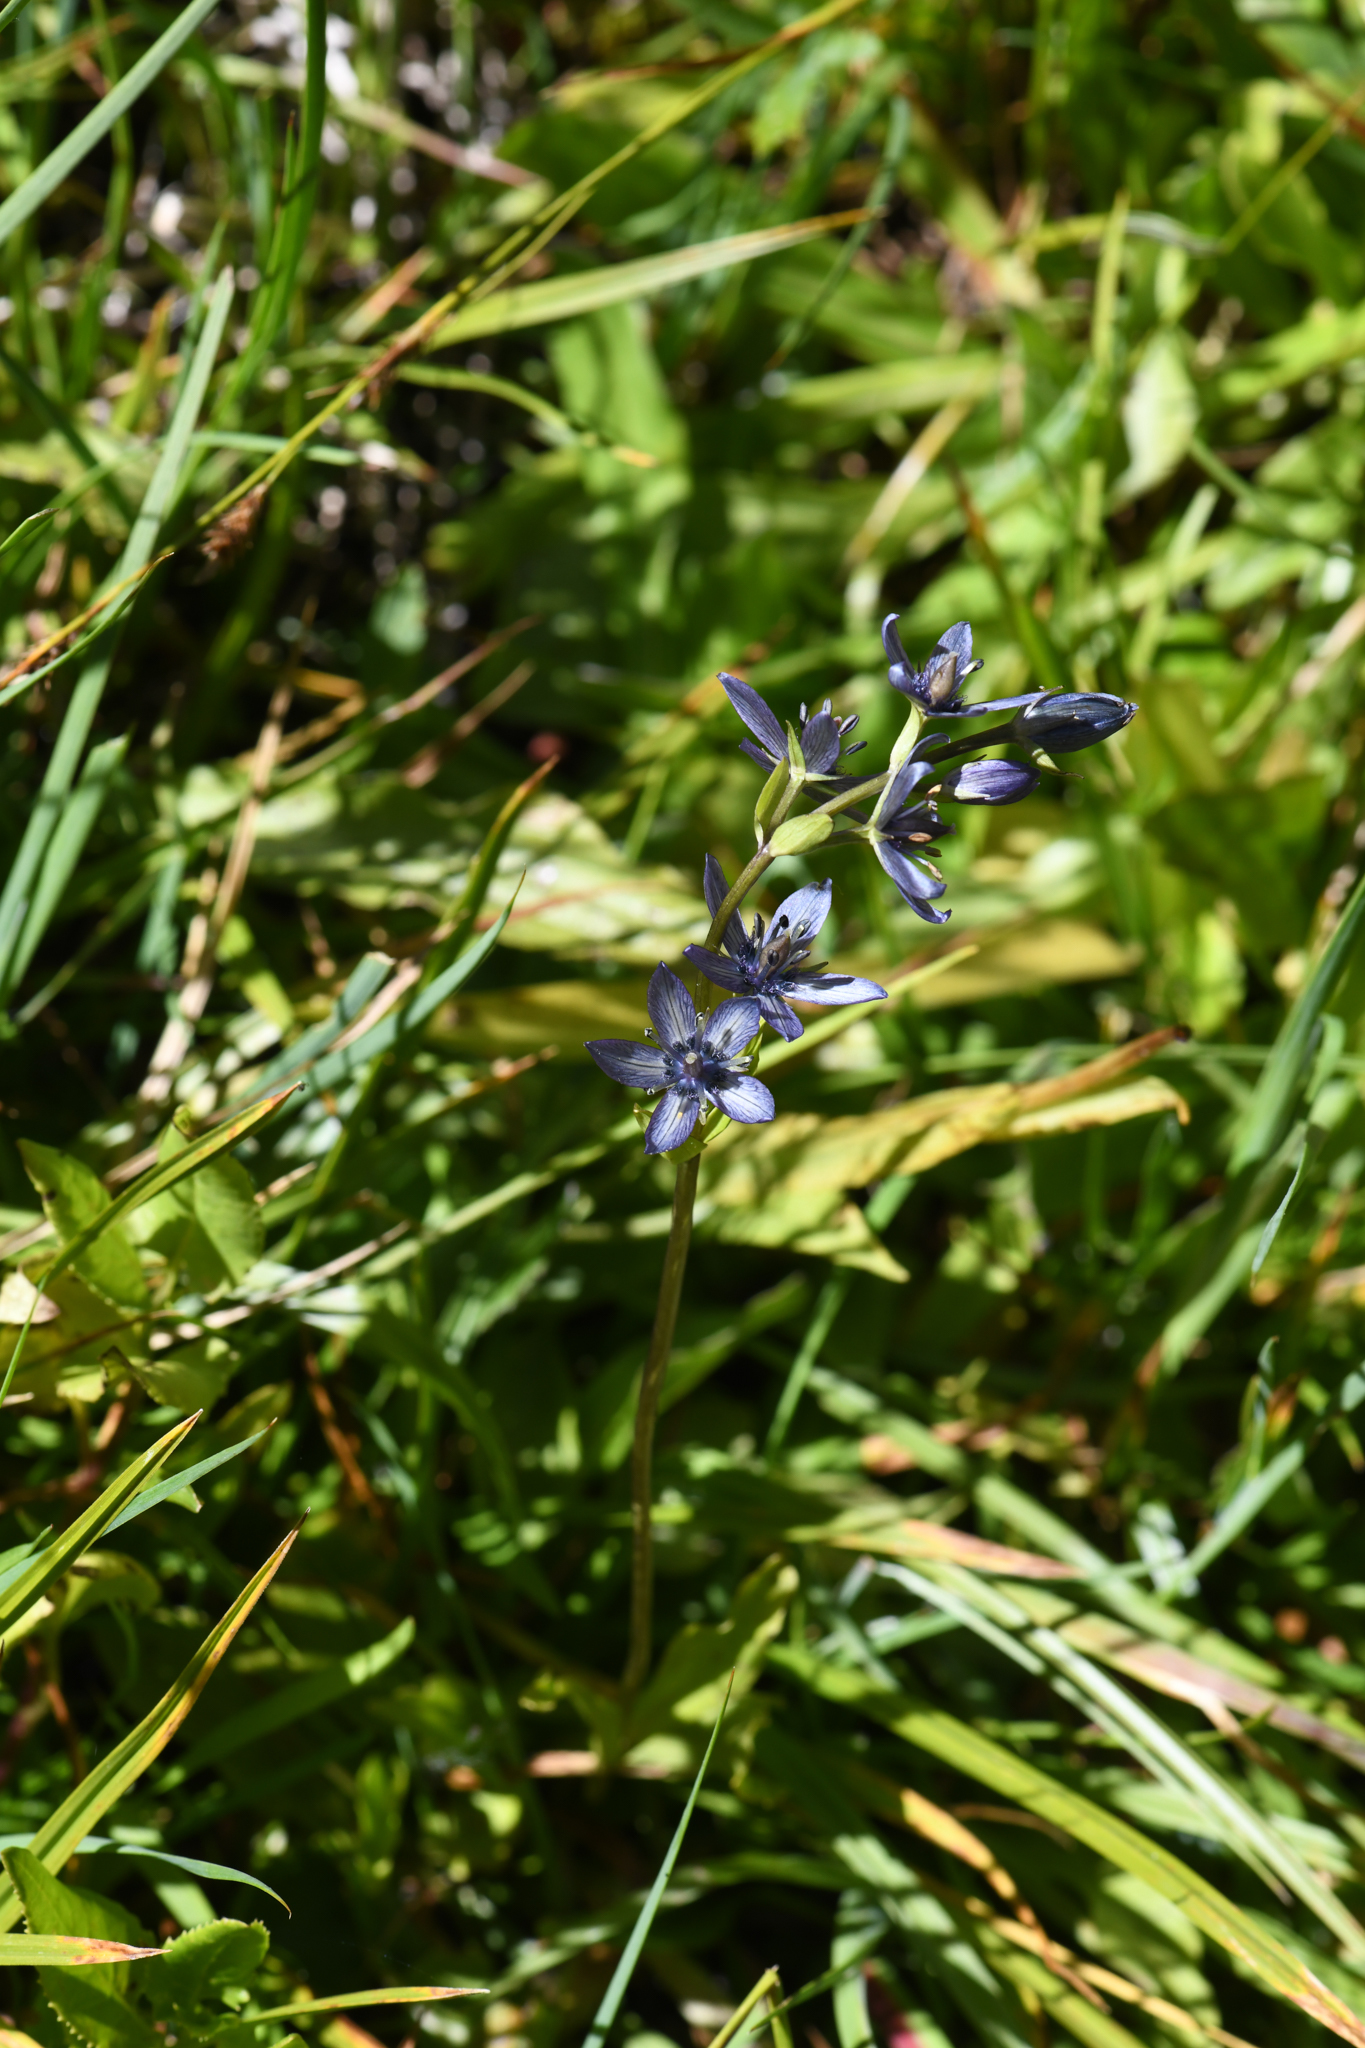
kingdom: Plantae
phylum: Tracheophyta
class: Magnoliopsida
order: Gentianales
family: Gentianaceae
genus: Swertia
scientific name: Swertia perennis
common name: Alpine bog swertia
